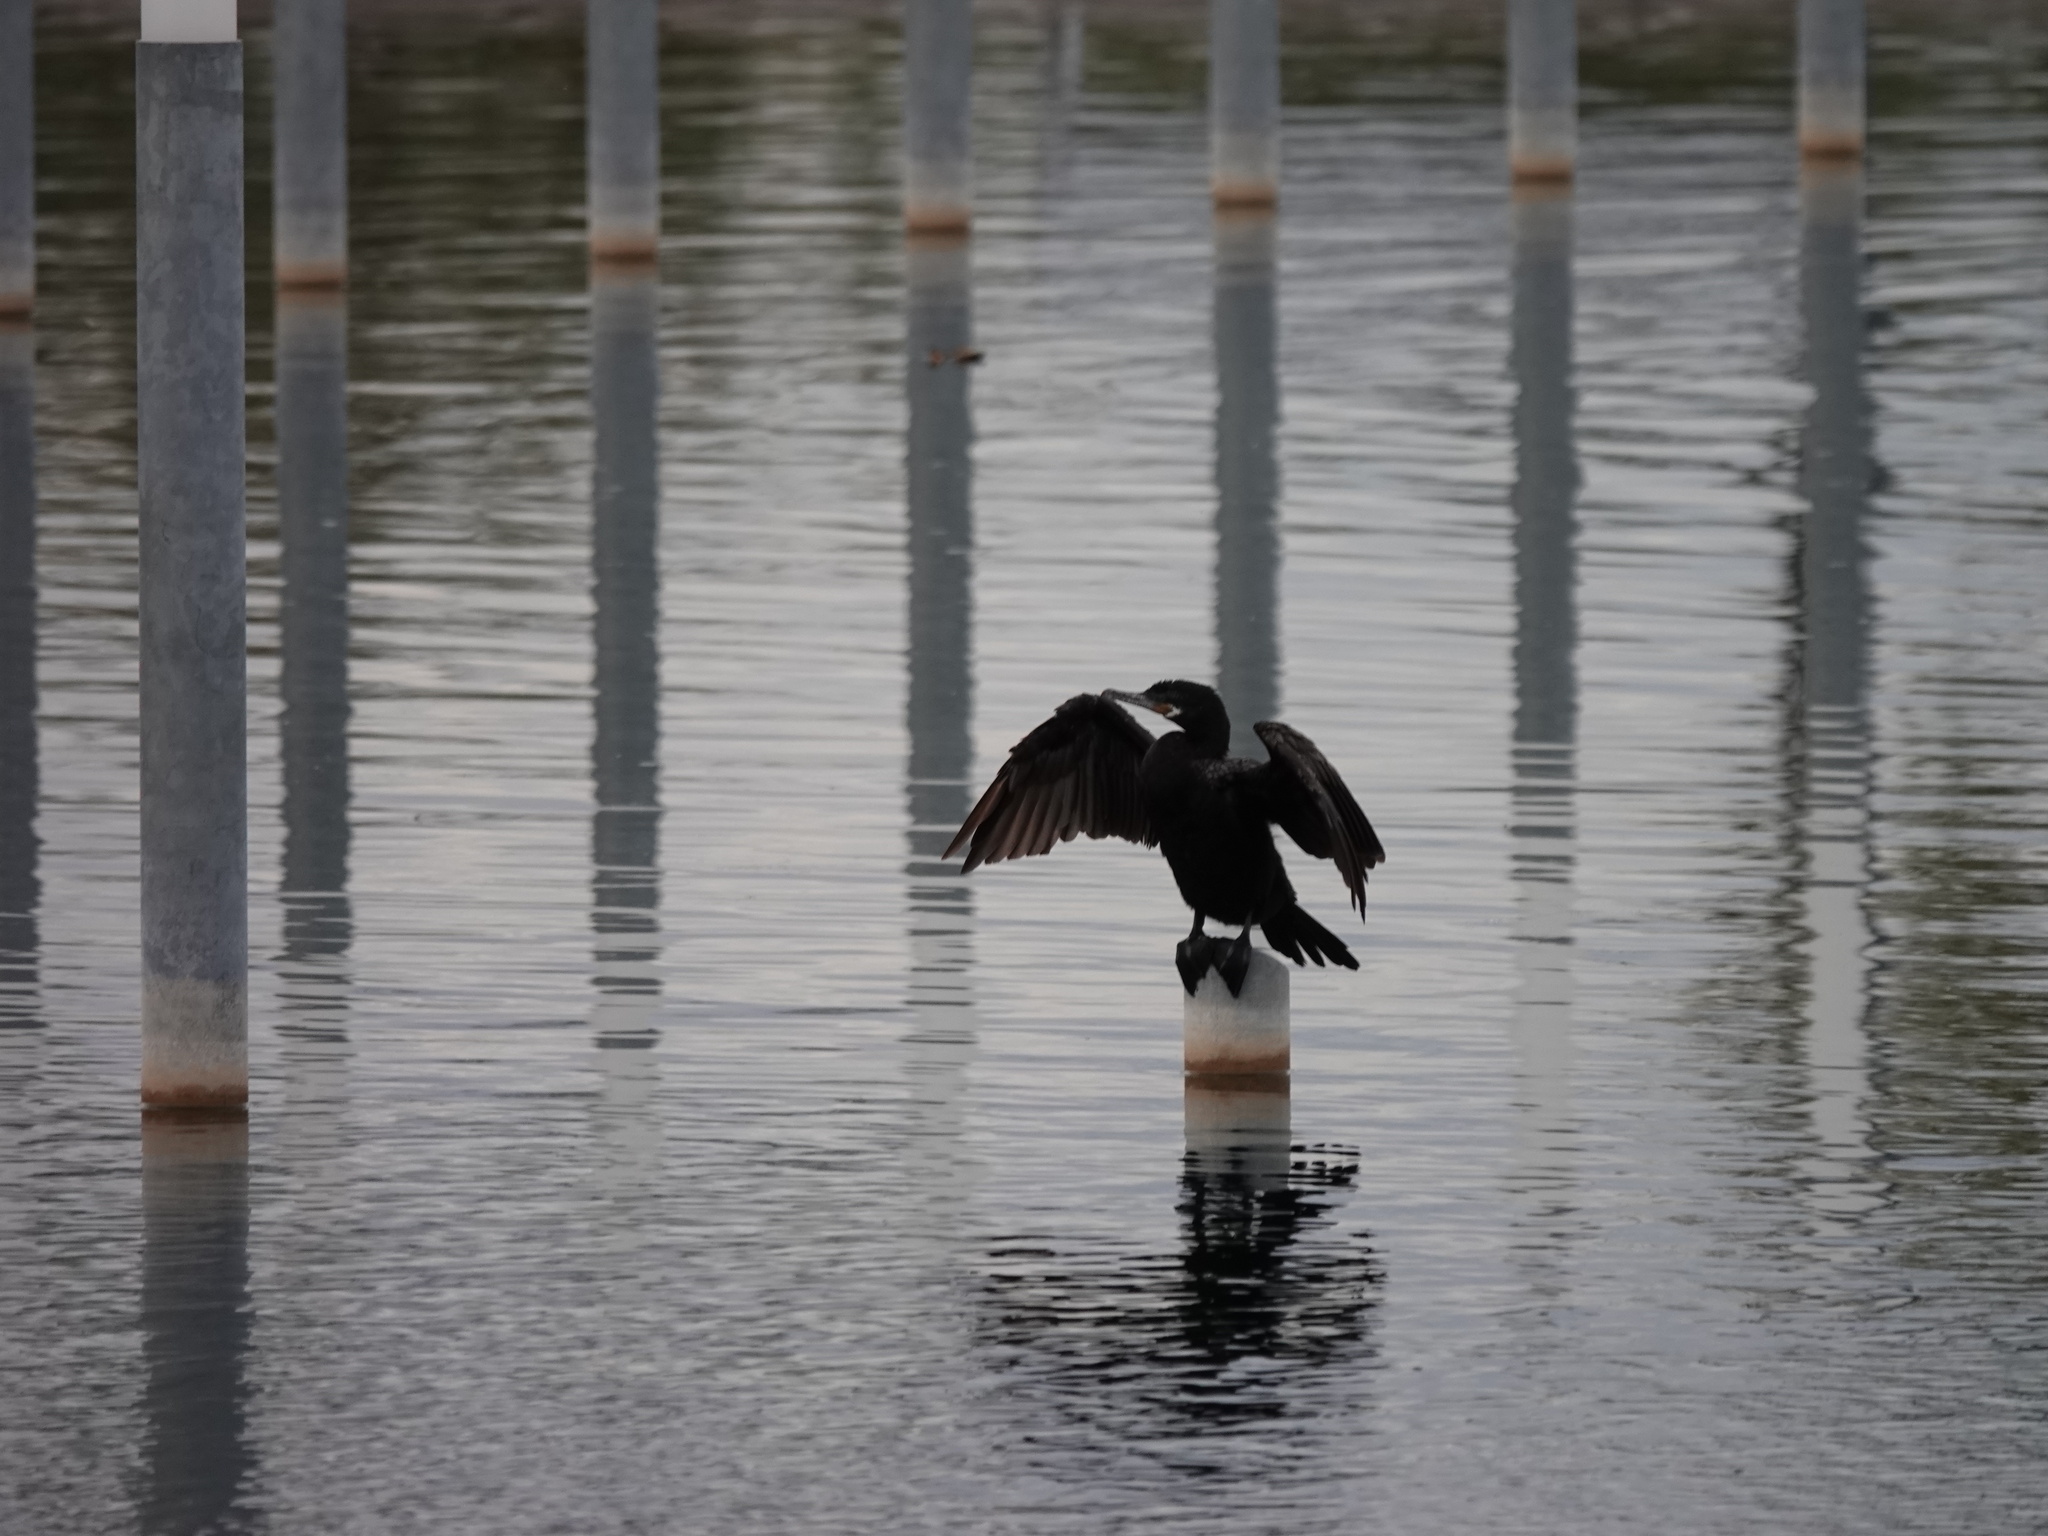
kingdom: Animalia
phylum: Chordata
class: Aves
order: Suliformes
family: Phalacrocoracidae
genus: Phalacrocorax
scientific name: Phalacrocorax brasilianus
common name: Neotropic cormorant
